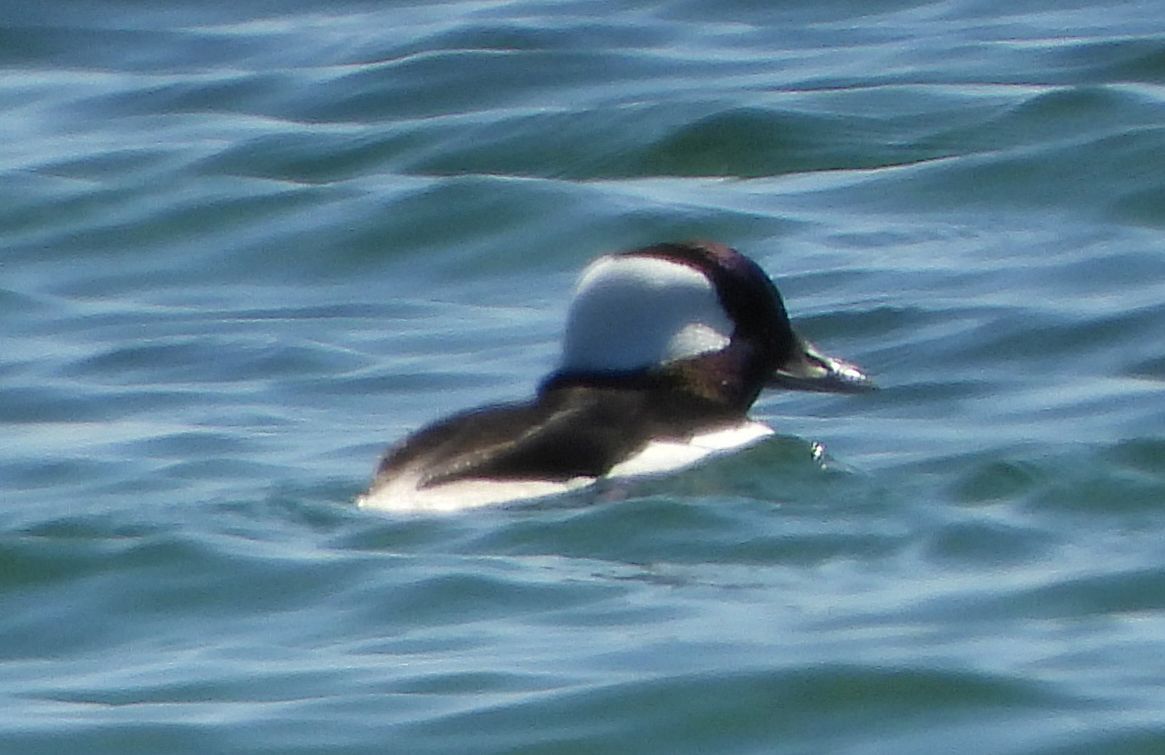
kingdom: Animalia
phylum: Chordata
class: Aves
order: Anseriformes
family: Anatidae
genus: Bucephala
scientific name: Bucephala albeola
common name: Bufflehead
